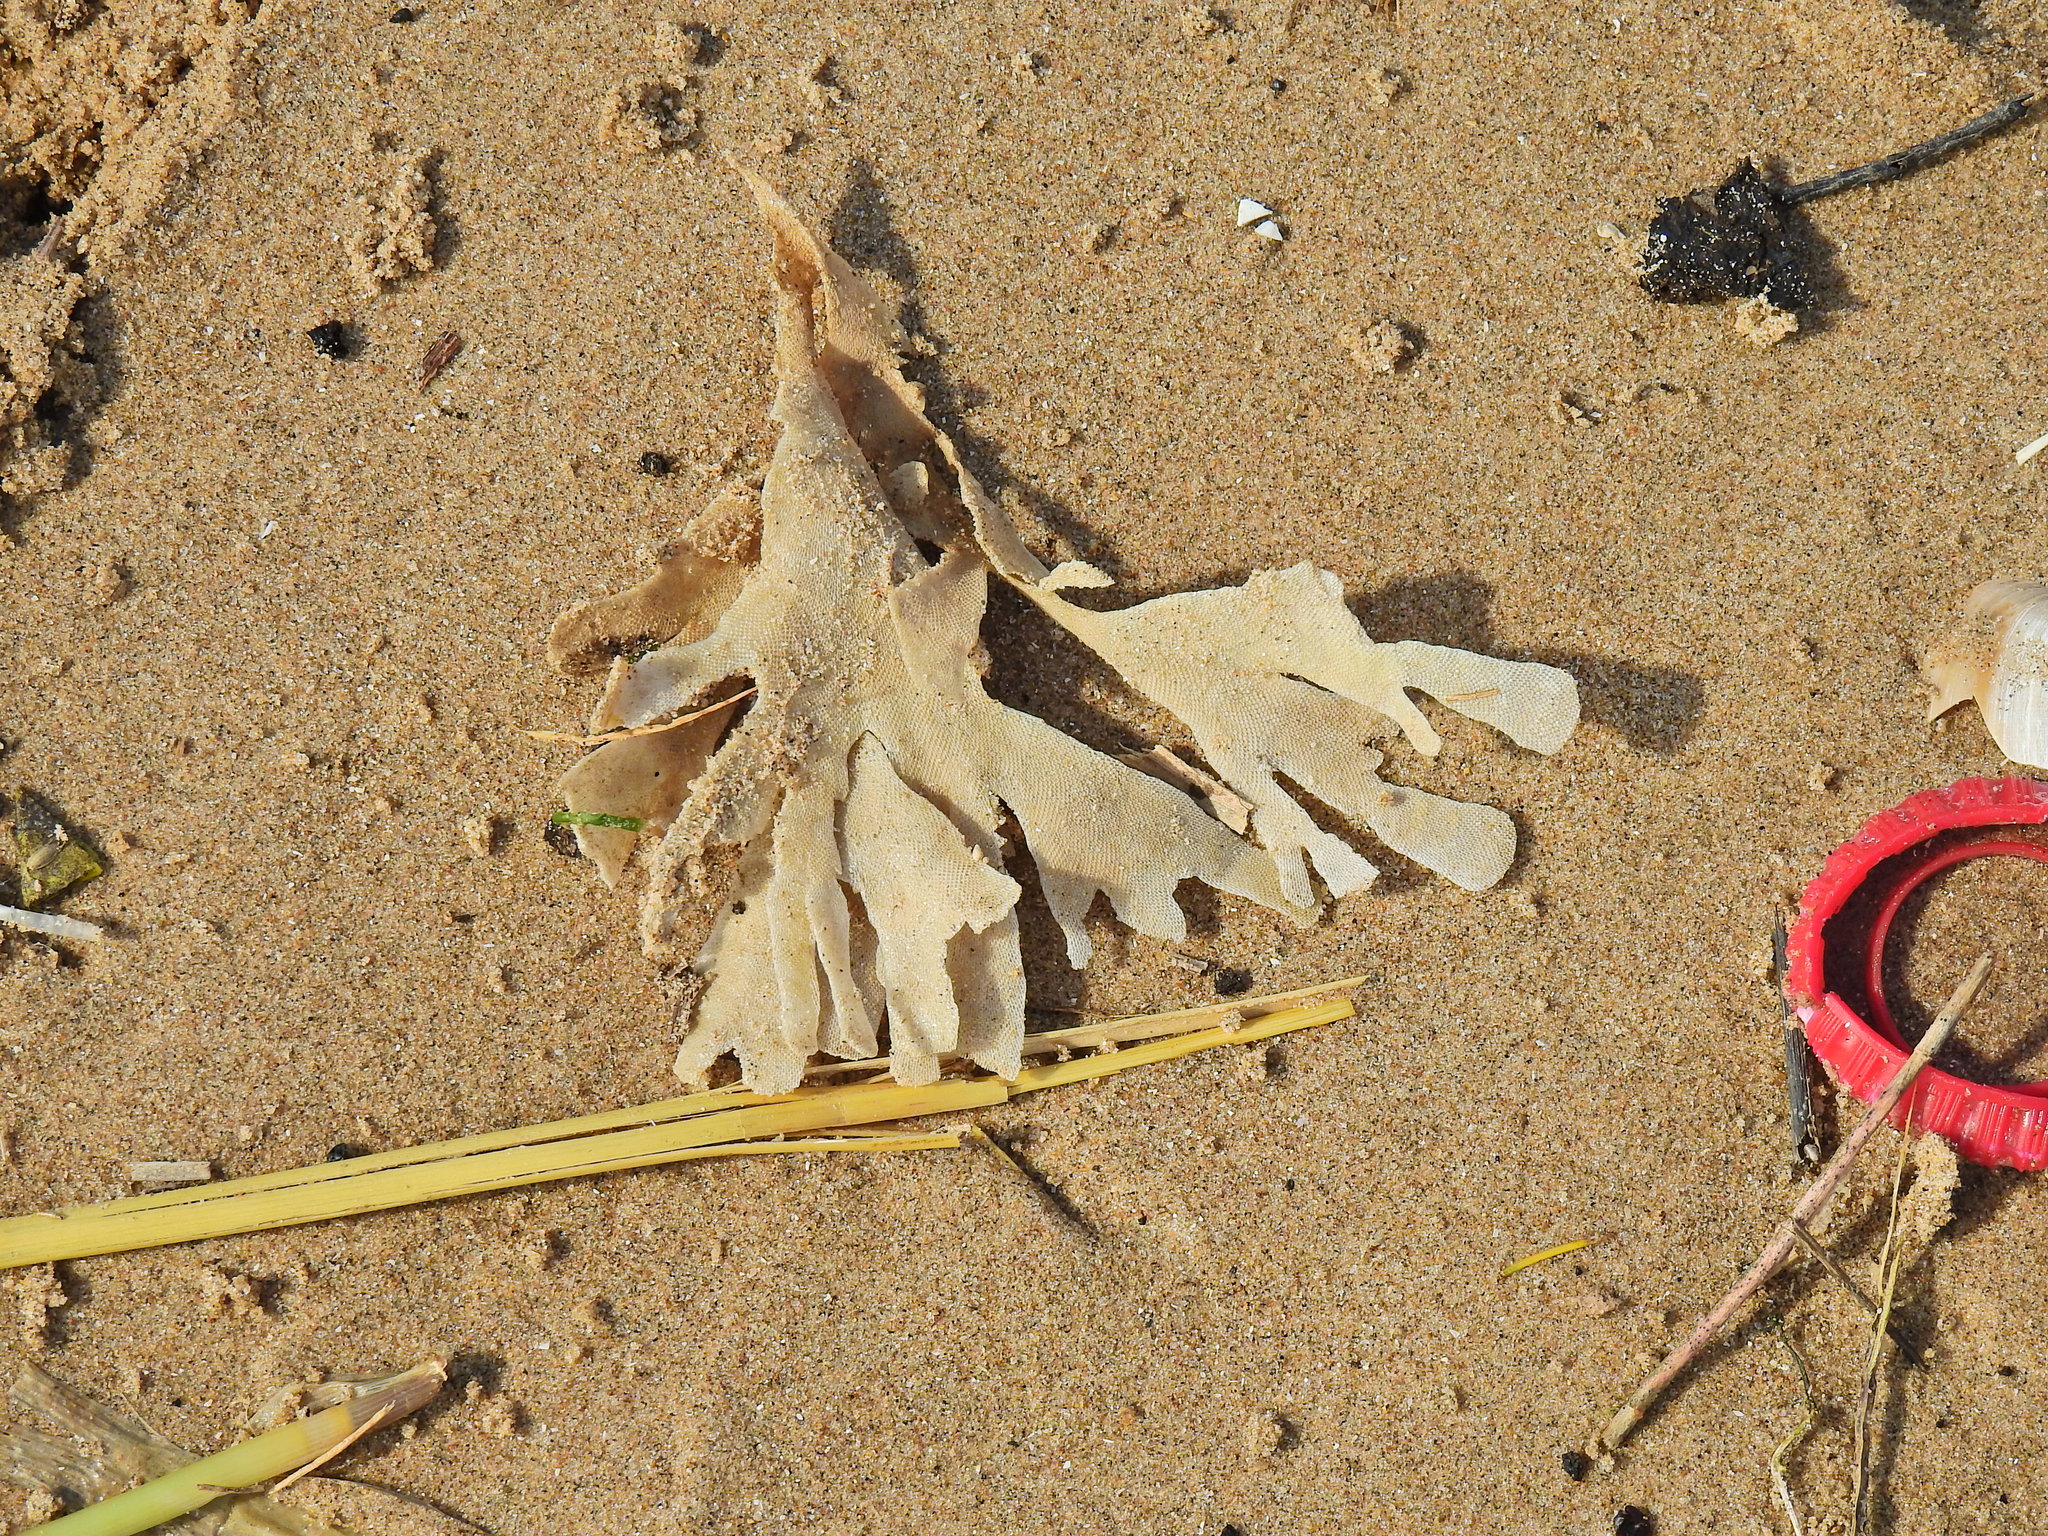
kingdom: Animalia
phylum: Bryozoa
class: Gymnolaemata
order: Cheilostomatida
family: Flustridae
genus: Flustra
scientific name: Flustra foliacea
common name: Hornwrack
